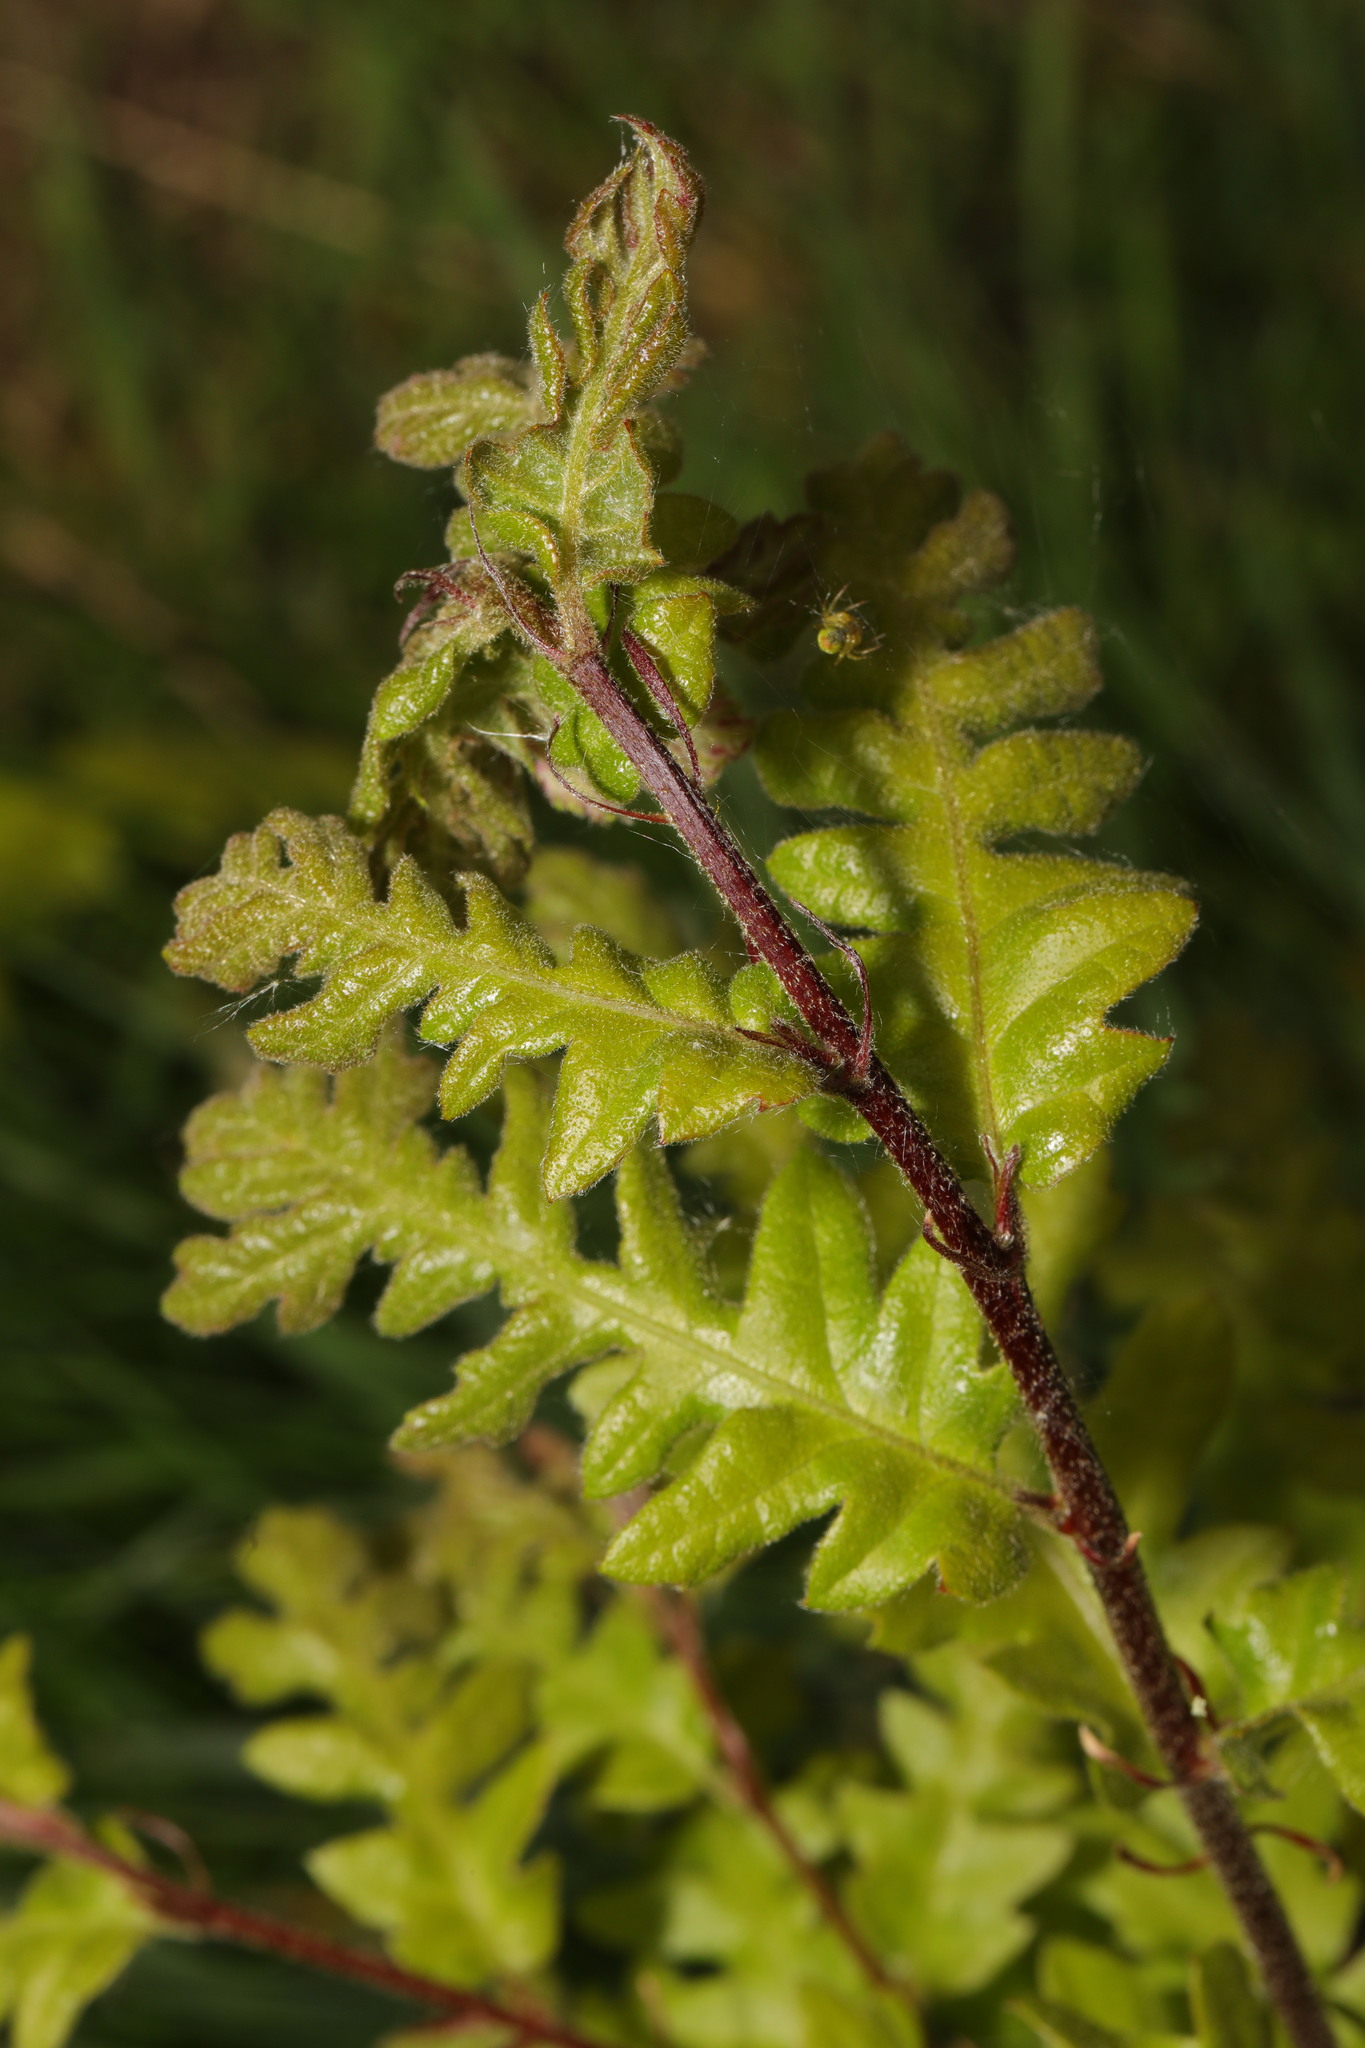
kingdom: Plantae
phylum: Tracheophyta
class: Magnoliopsida
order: Fagales
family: Fagaceae
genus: Quercus
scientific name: Quercus cerris
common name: Turkey oak
